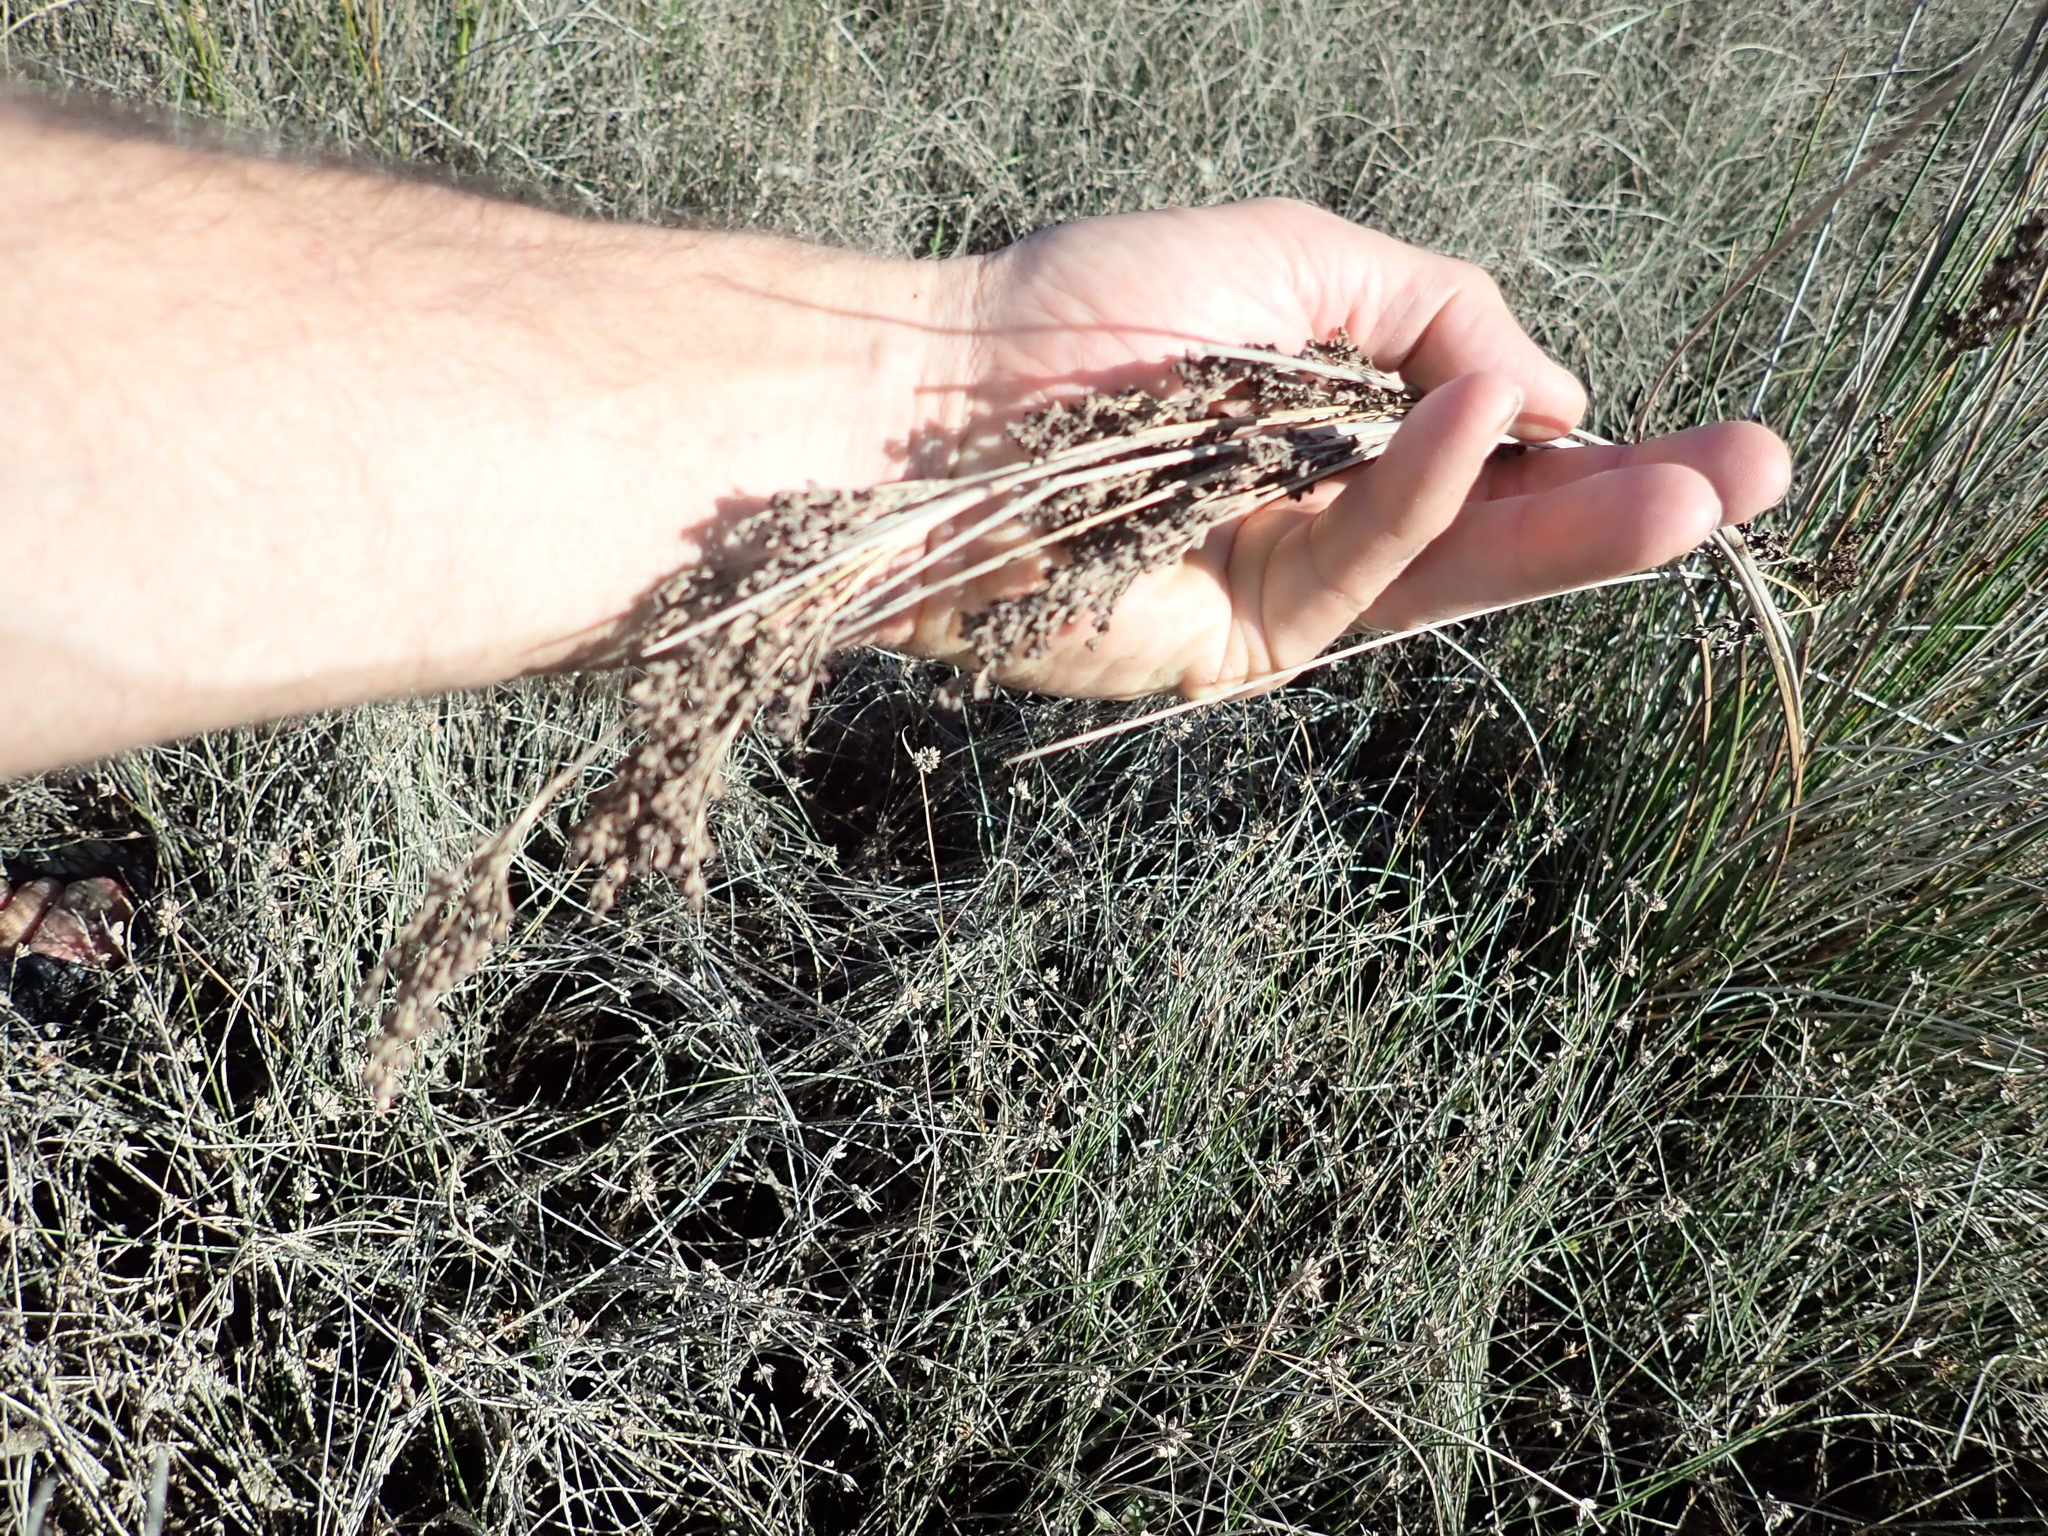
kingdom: Plantae
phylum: Tracheophyta
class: Liliopsida
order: Poales
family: Juncaceae
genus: Juncus
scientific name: Juncus kraussii
